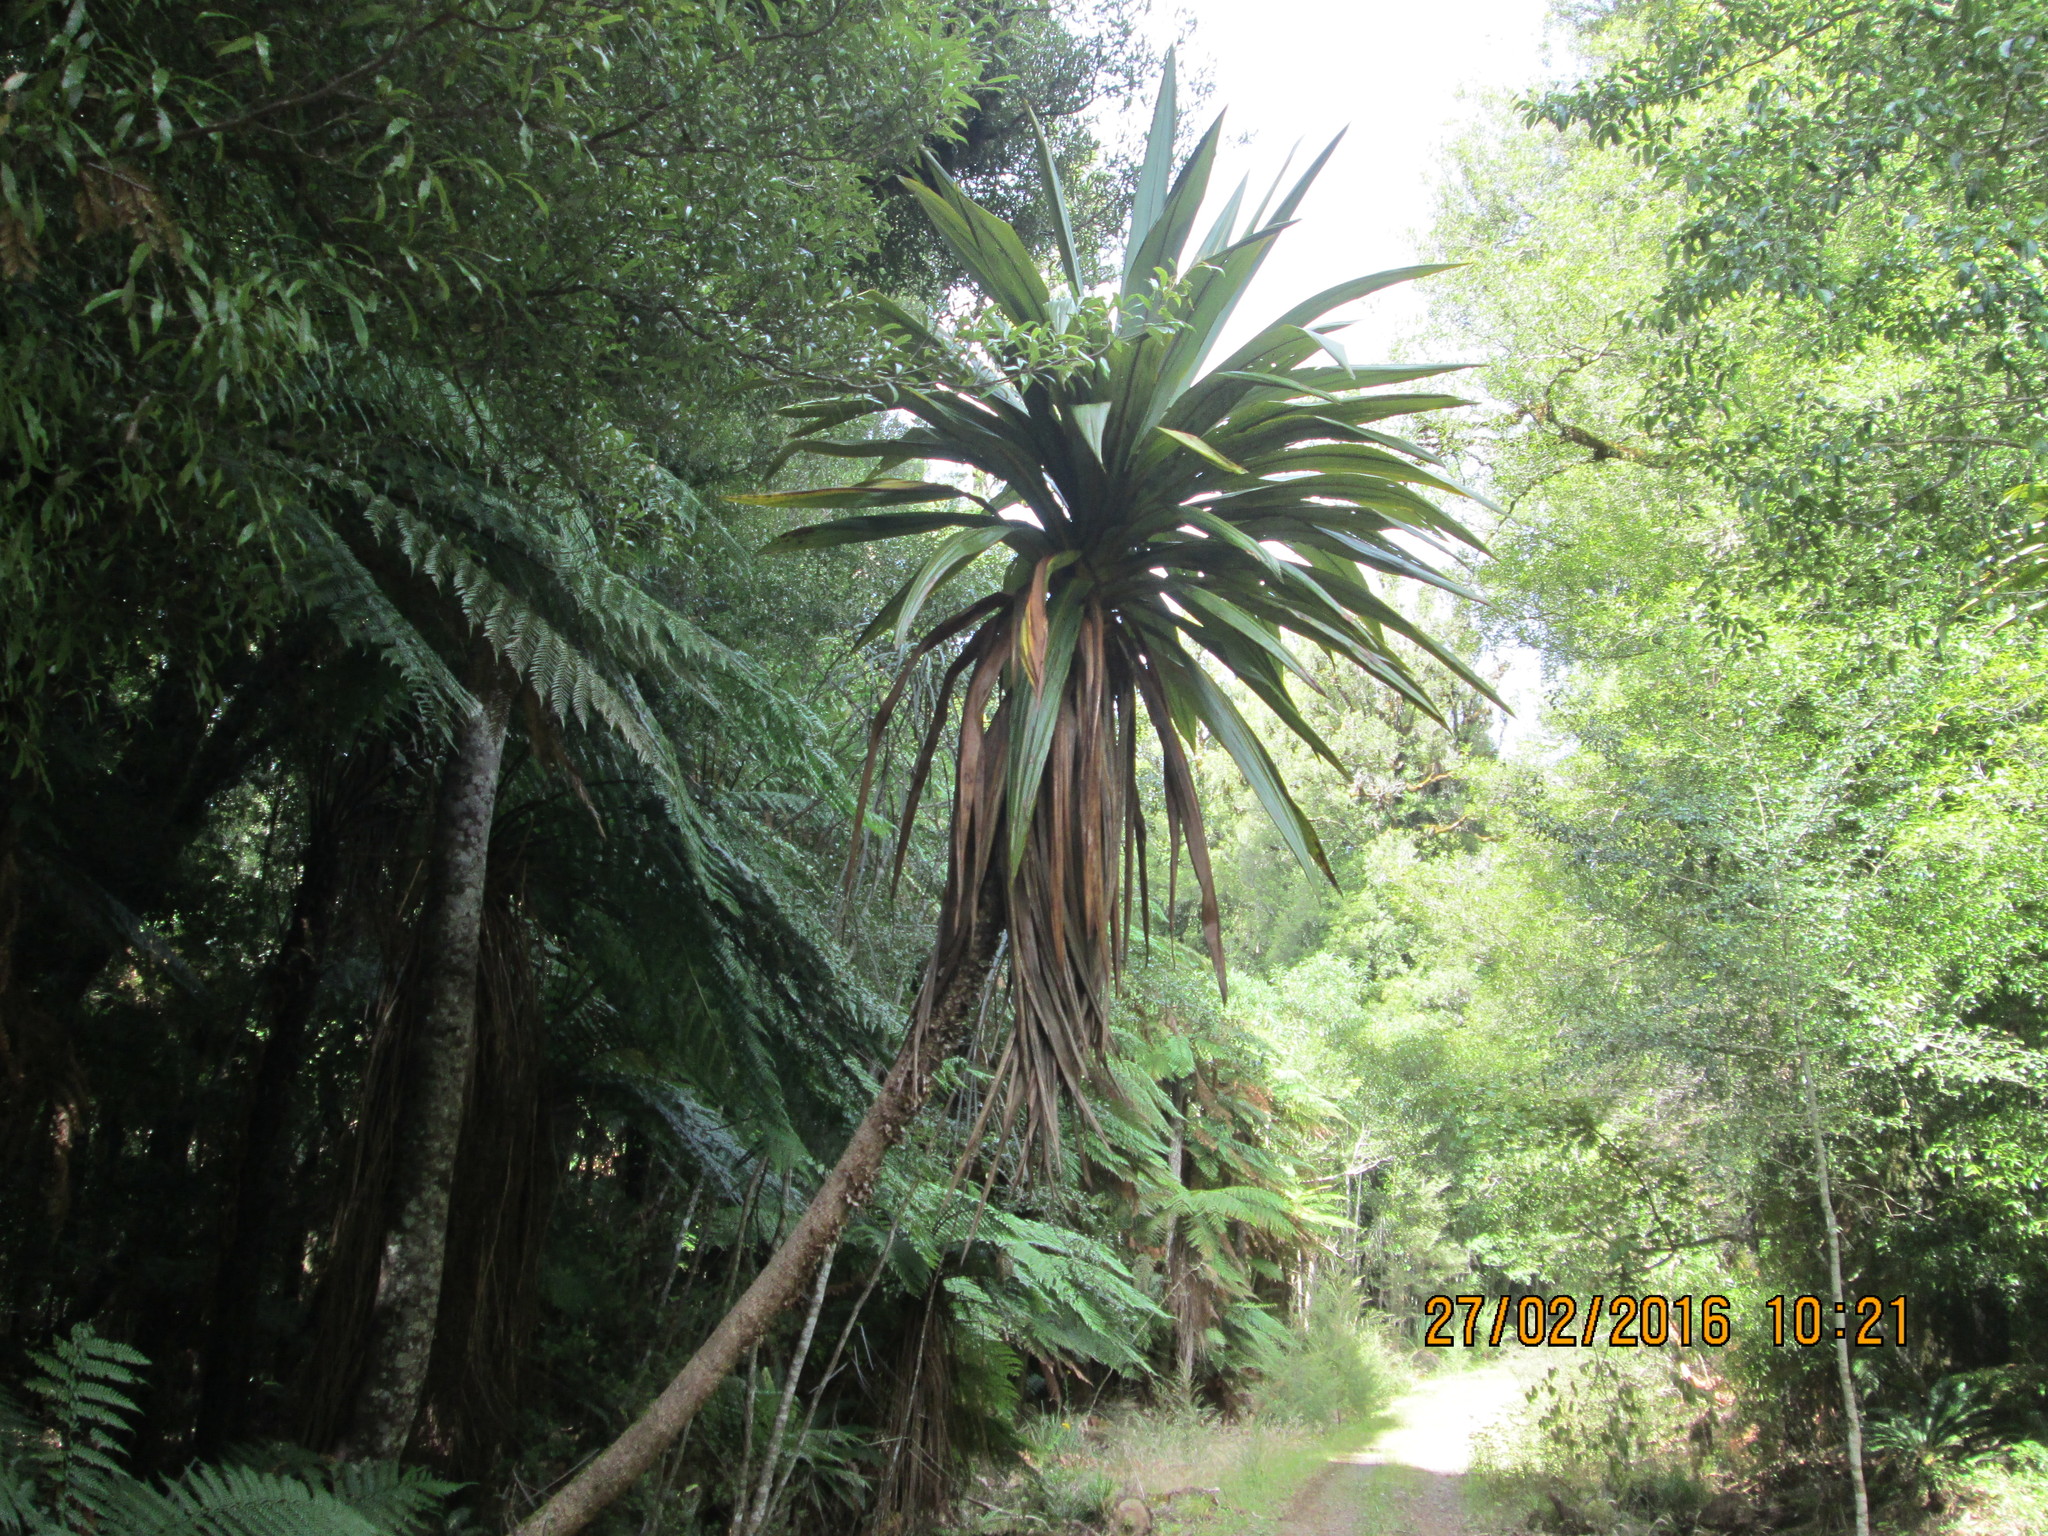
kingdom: Plantae
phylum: Tracheophyta
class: Liliopsida
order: Asparagales
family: Asparagaceae
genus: Cordyline
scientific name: Cordyline indivisa
